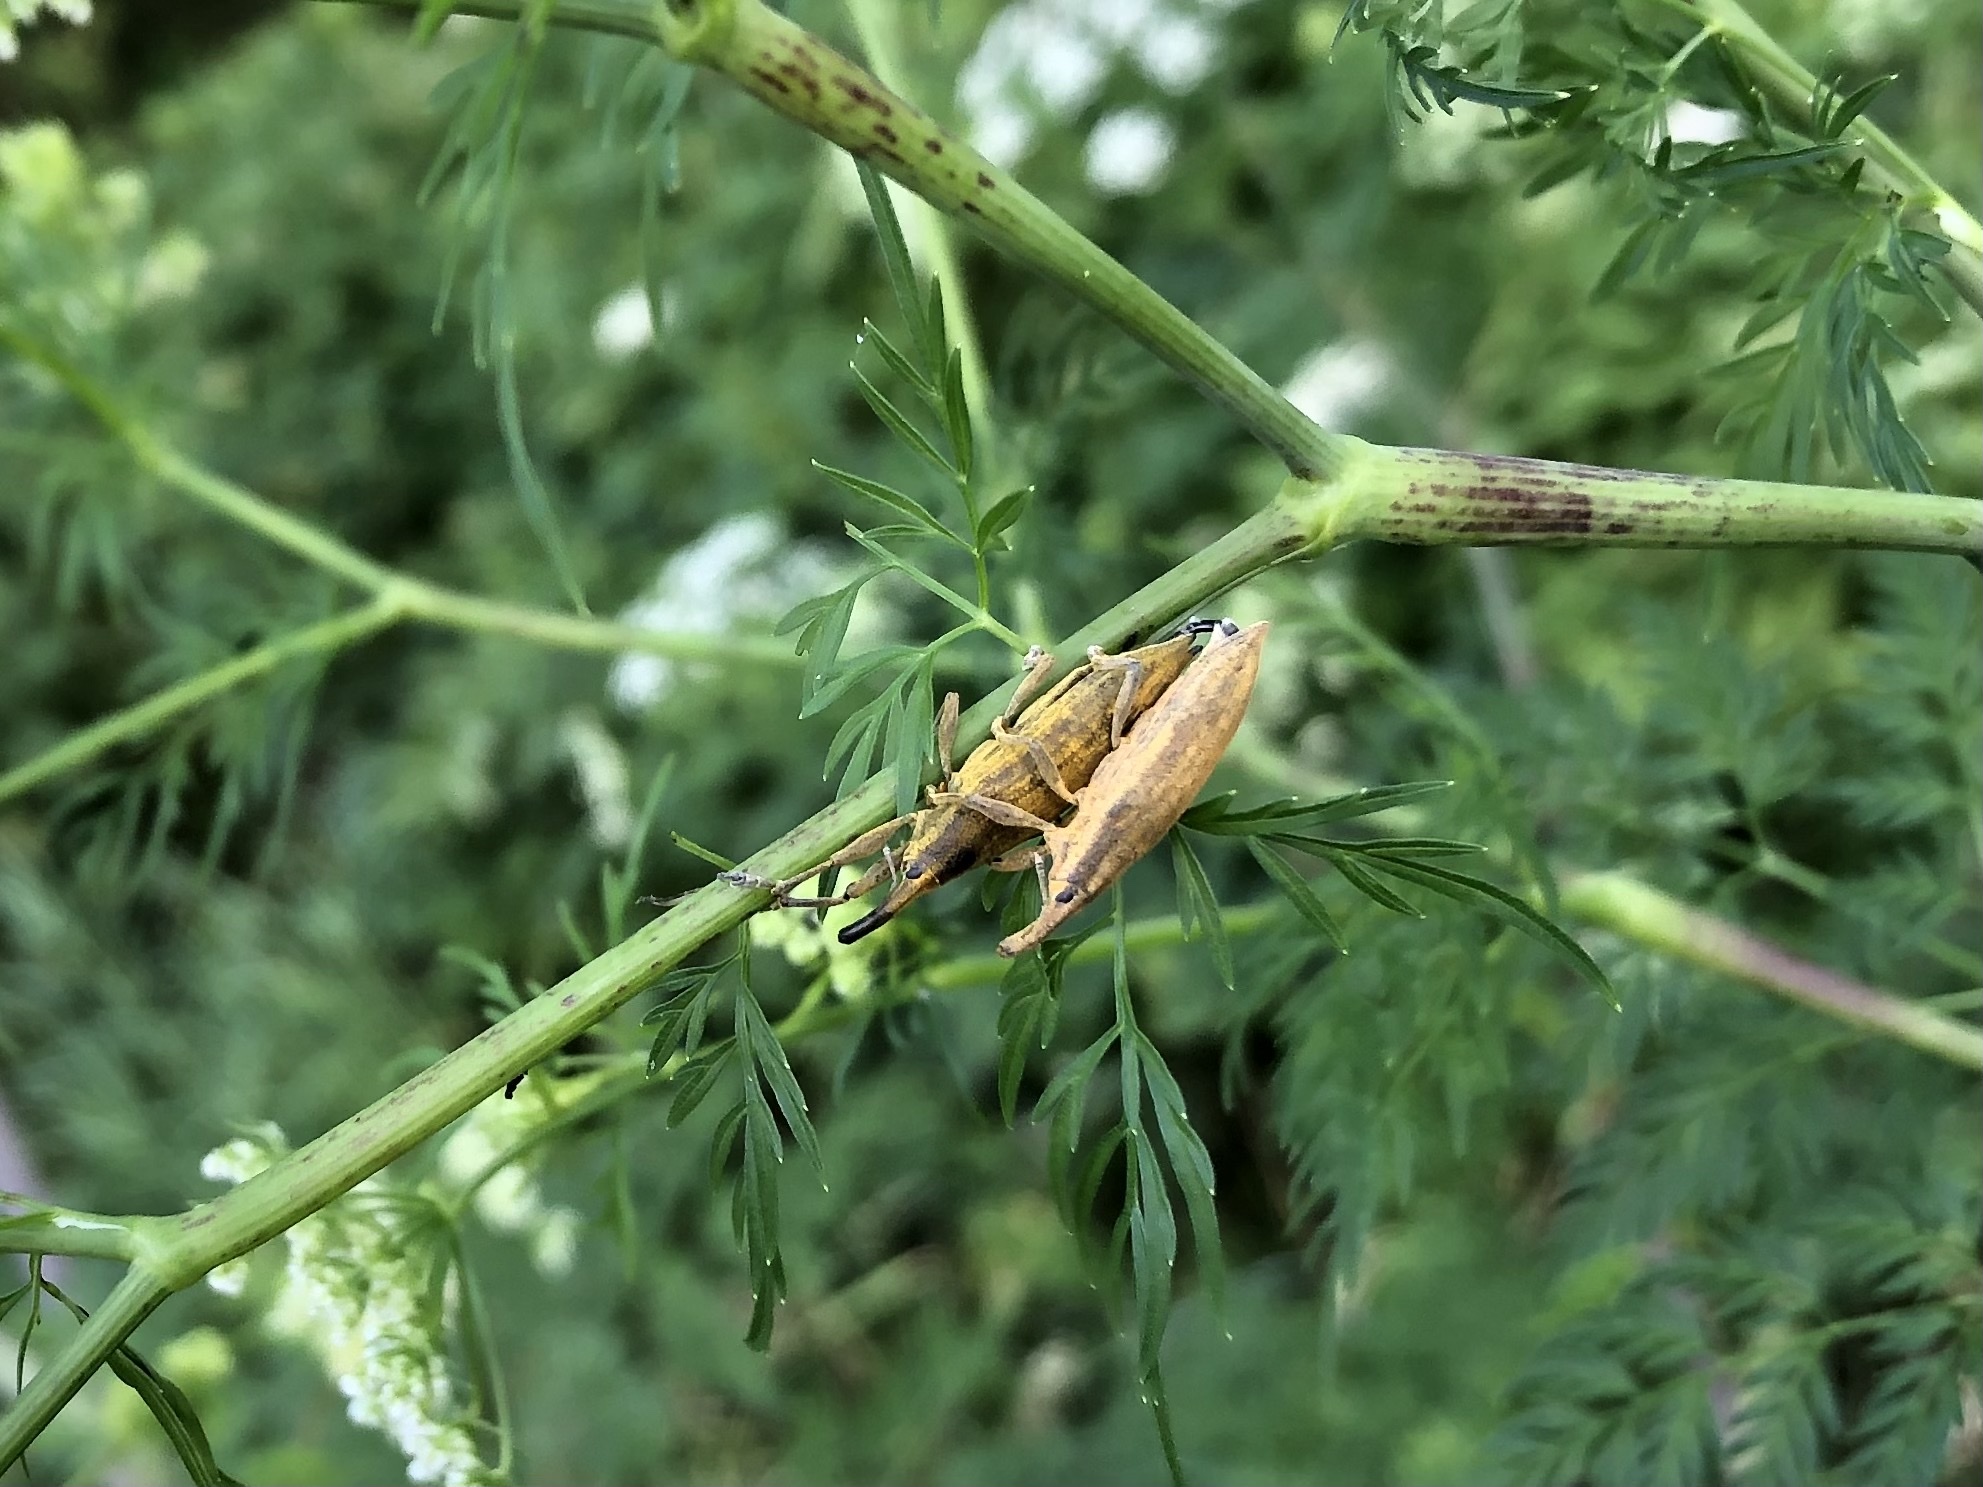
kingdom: Animalia
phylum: Arthropoda
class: Insecta
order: Coleoptera
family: Curculionidae
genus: Lixus
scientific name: Lixus iridis
